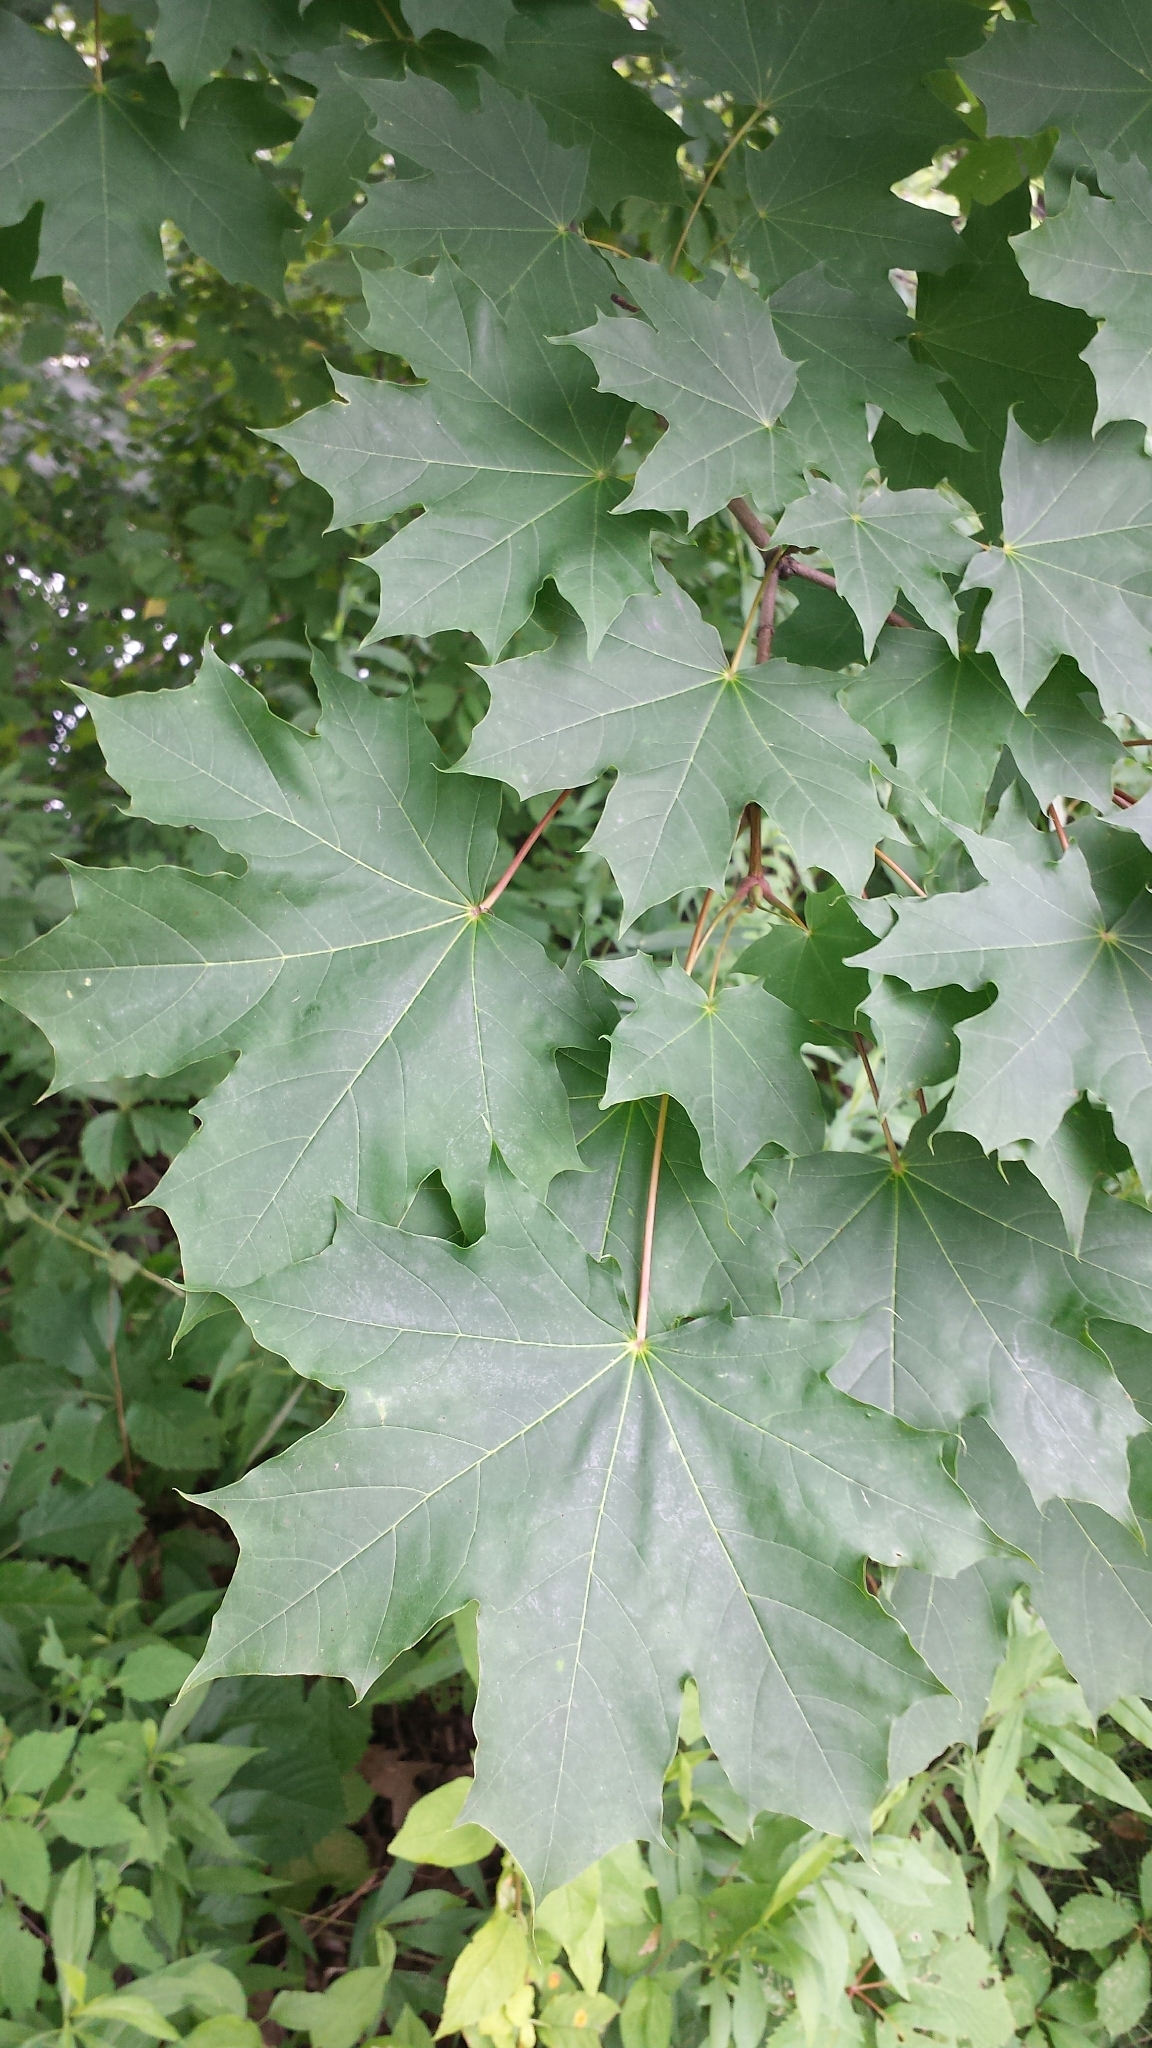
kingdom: Plantae
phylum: Tracheophyta
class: Magnoliopsida
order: Sapindales
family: Sapindaceae
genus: Acer
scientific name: Acer platanoides
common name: Norway maple
